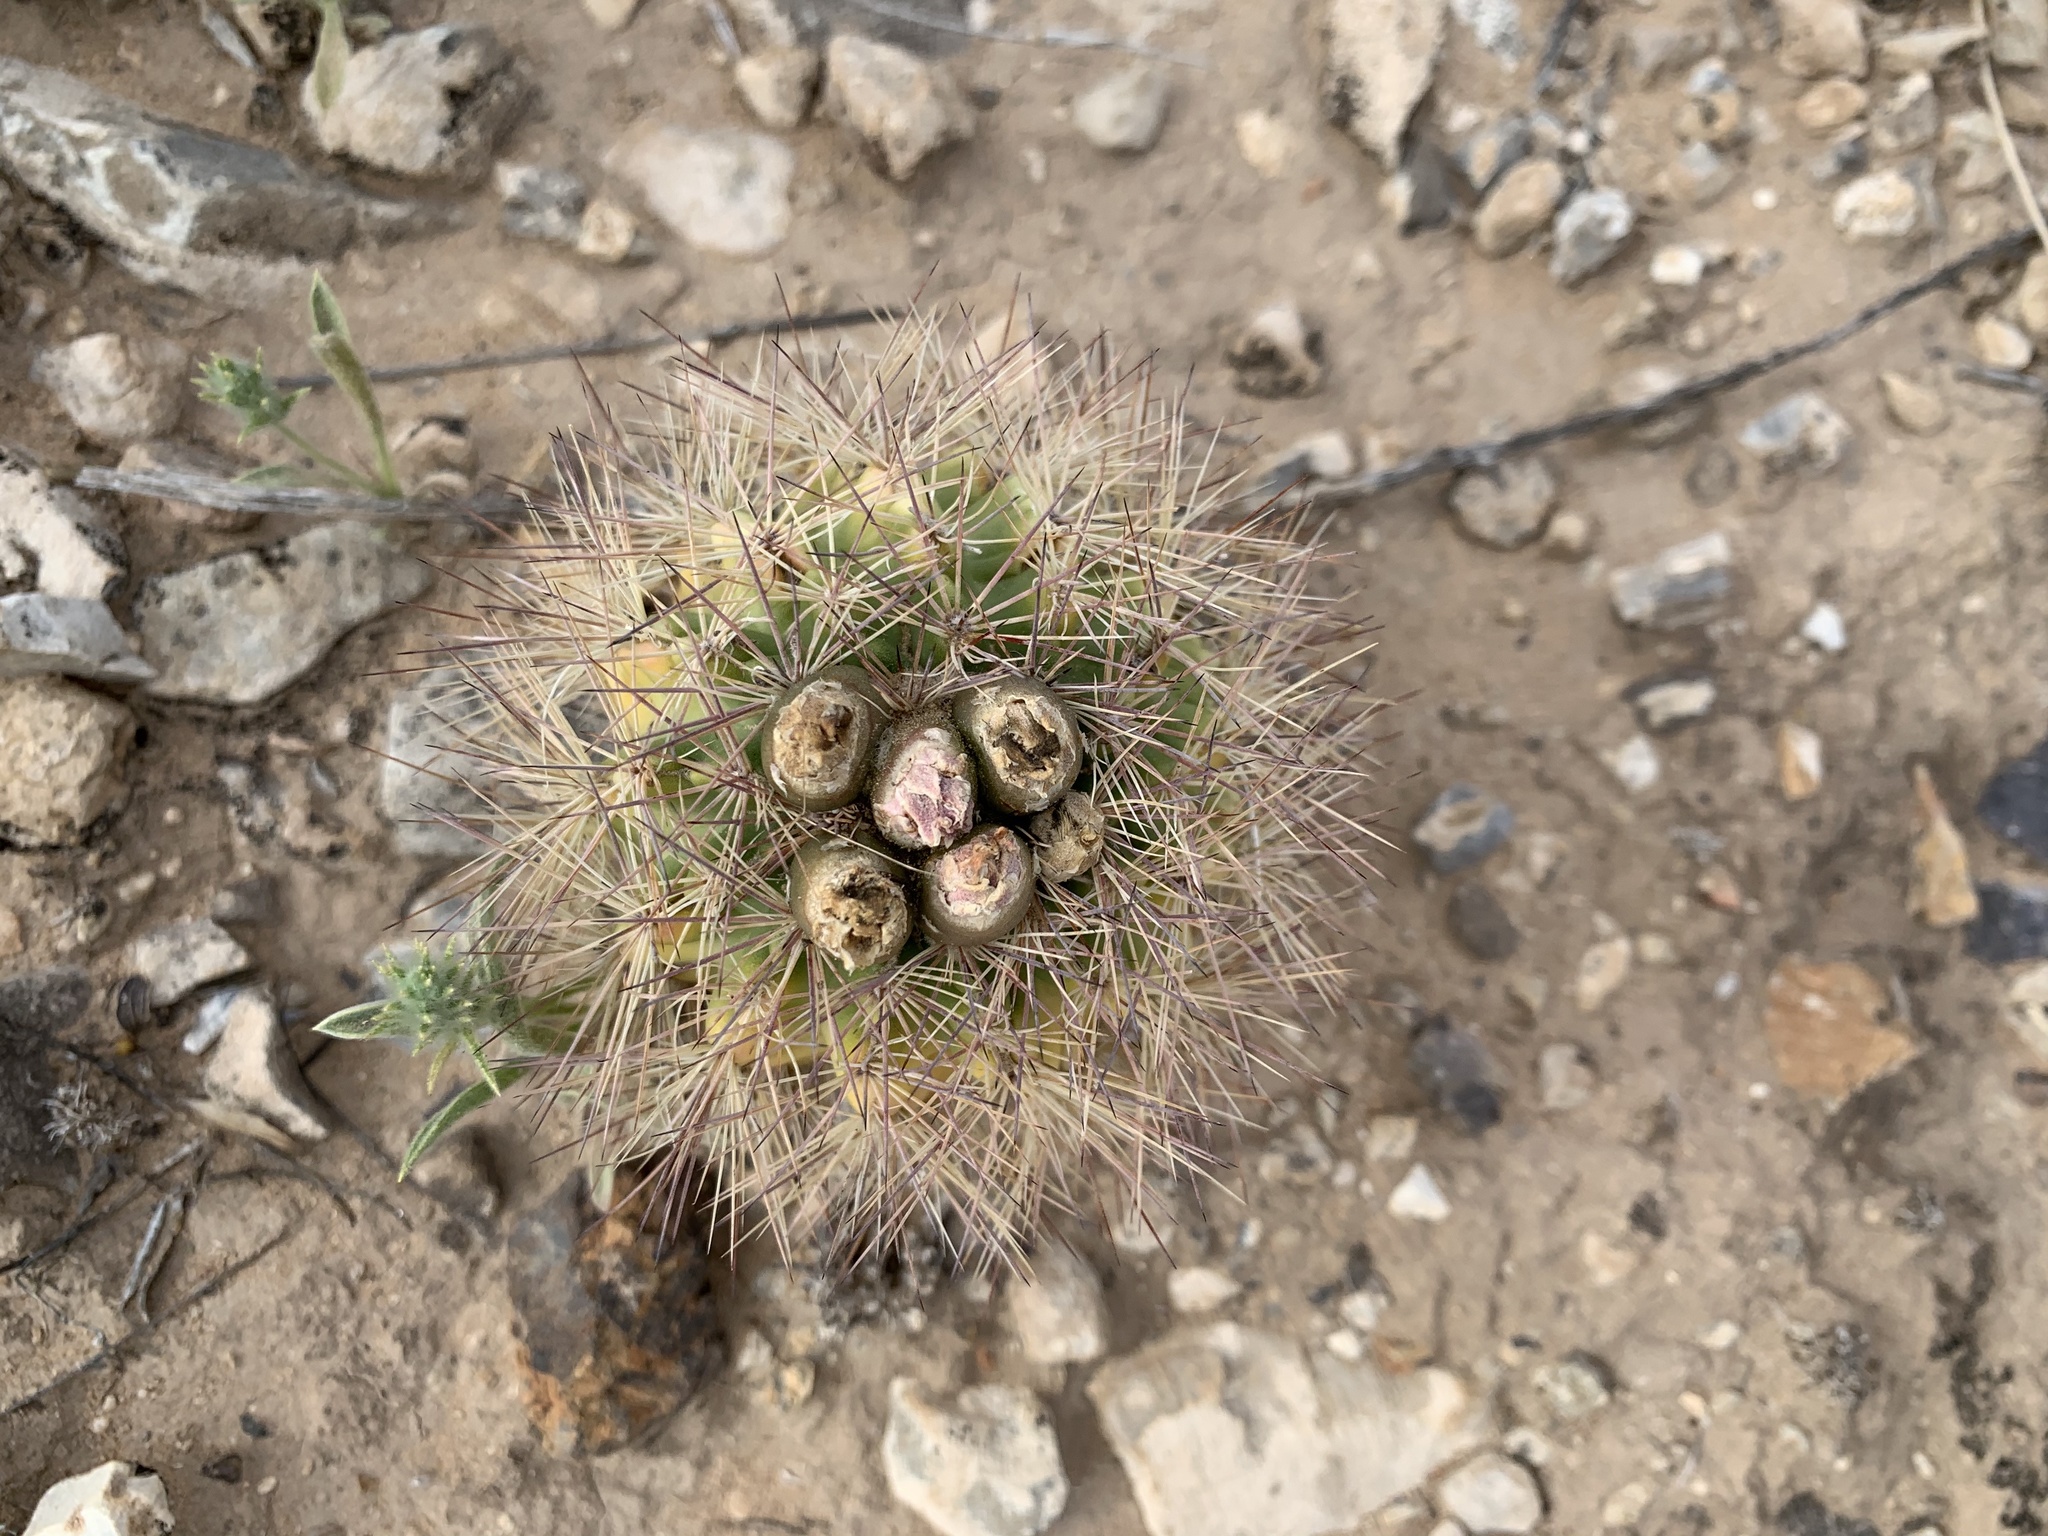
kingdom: Plantae
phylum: Tracheophyta
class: Magnoliopsida
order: Caryophyllales
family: Cactaceae
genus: Sclerocactus
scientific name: Sclerocactus intertextus
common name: White fish-hook cactus
